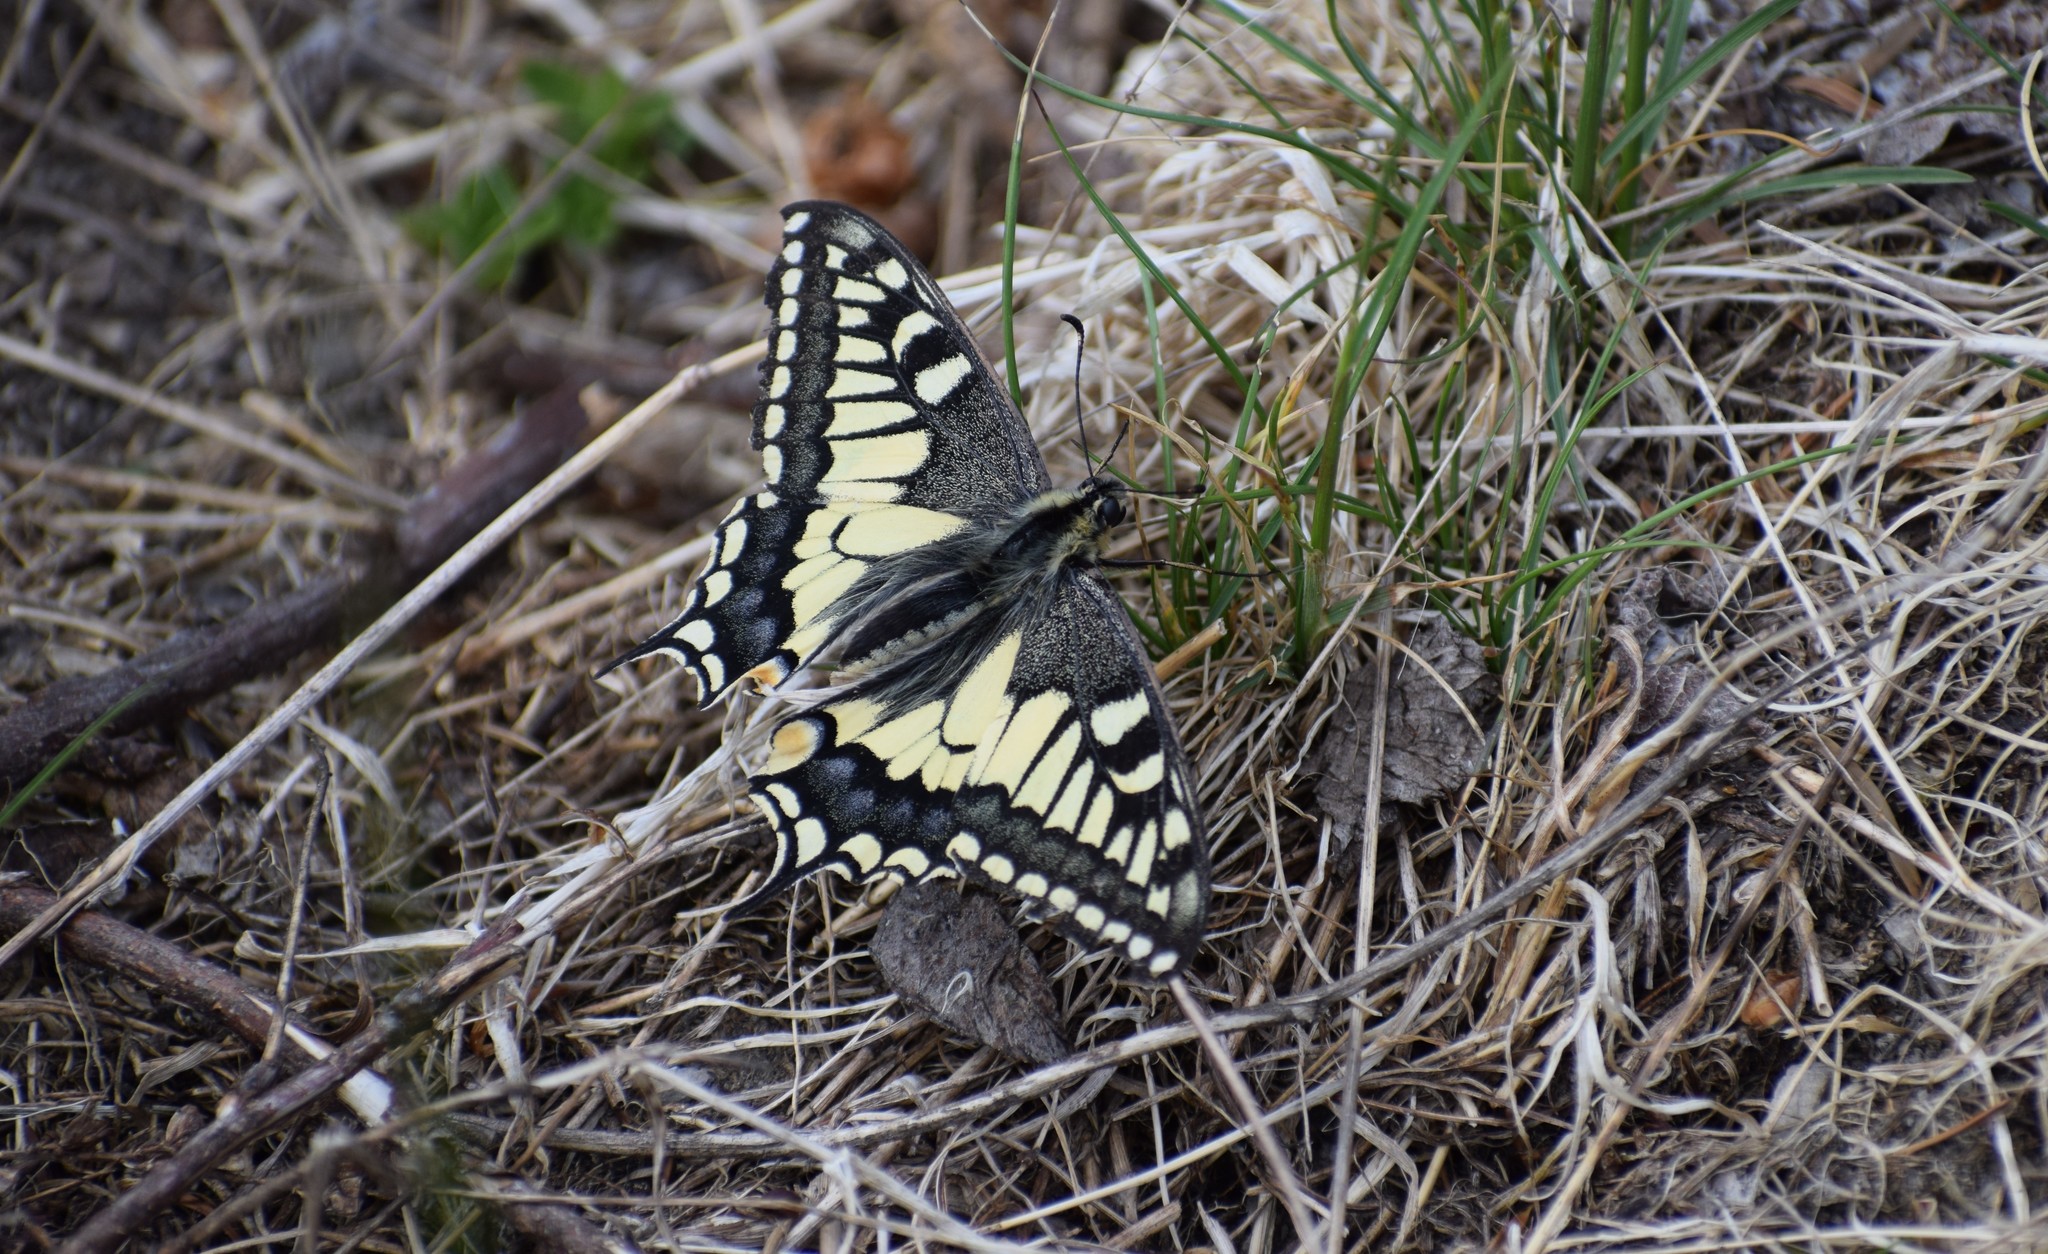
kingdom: Animalia
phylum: Arthropoda
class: Insecta
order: Lepidoptera
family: Papilionidae
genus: Papilio
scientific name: Papilio machaon
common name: Swallowtail
